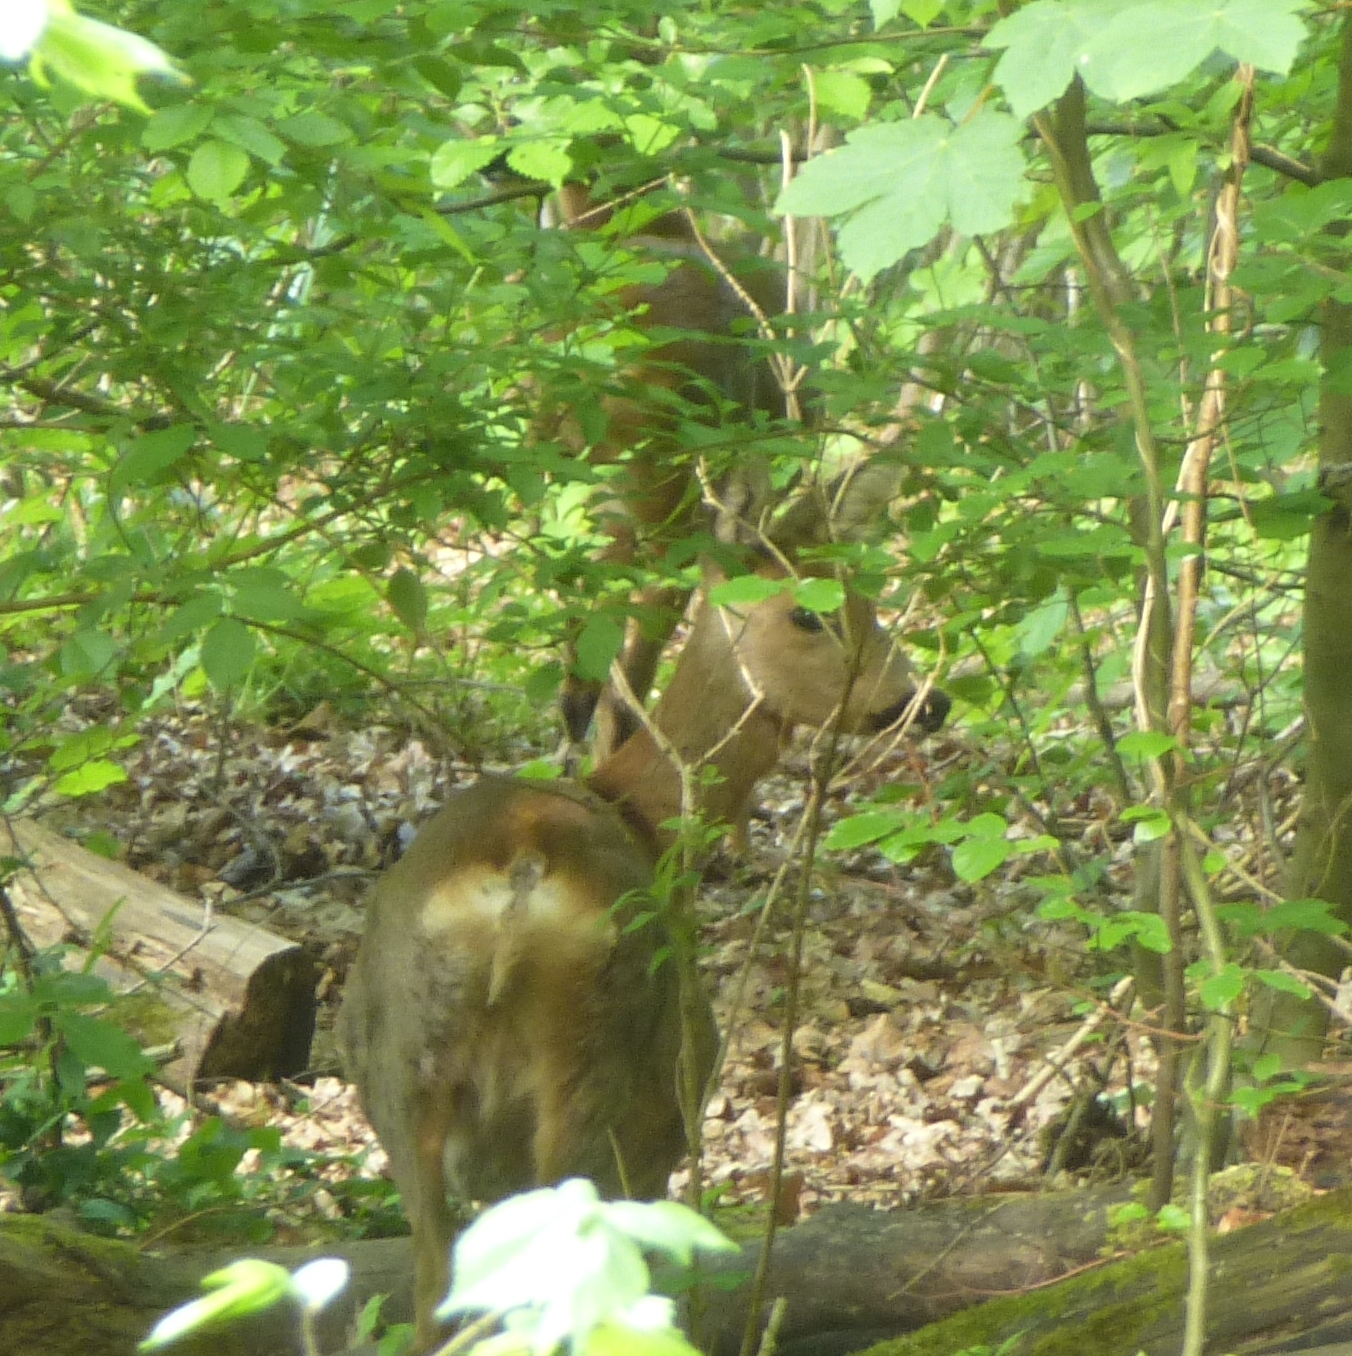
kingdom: Animalia
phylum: Chordata
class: Mammalia
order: Artiodactyla
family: Cervidae
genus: Capreolus
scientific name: Capreolus capreolus
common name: Western roe deer
